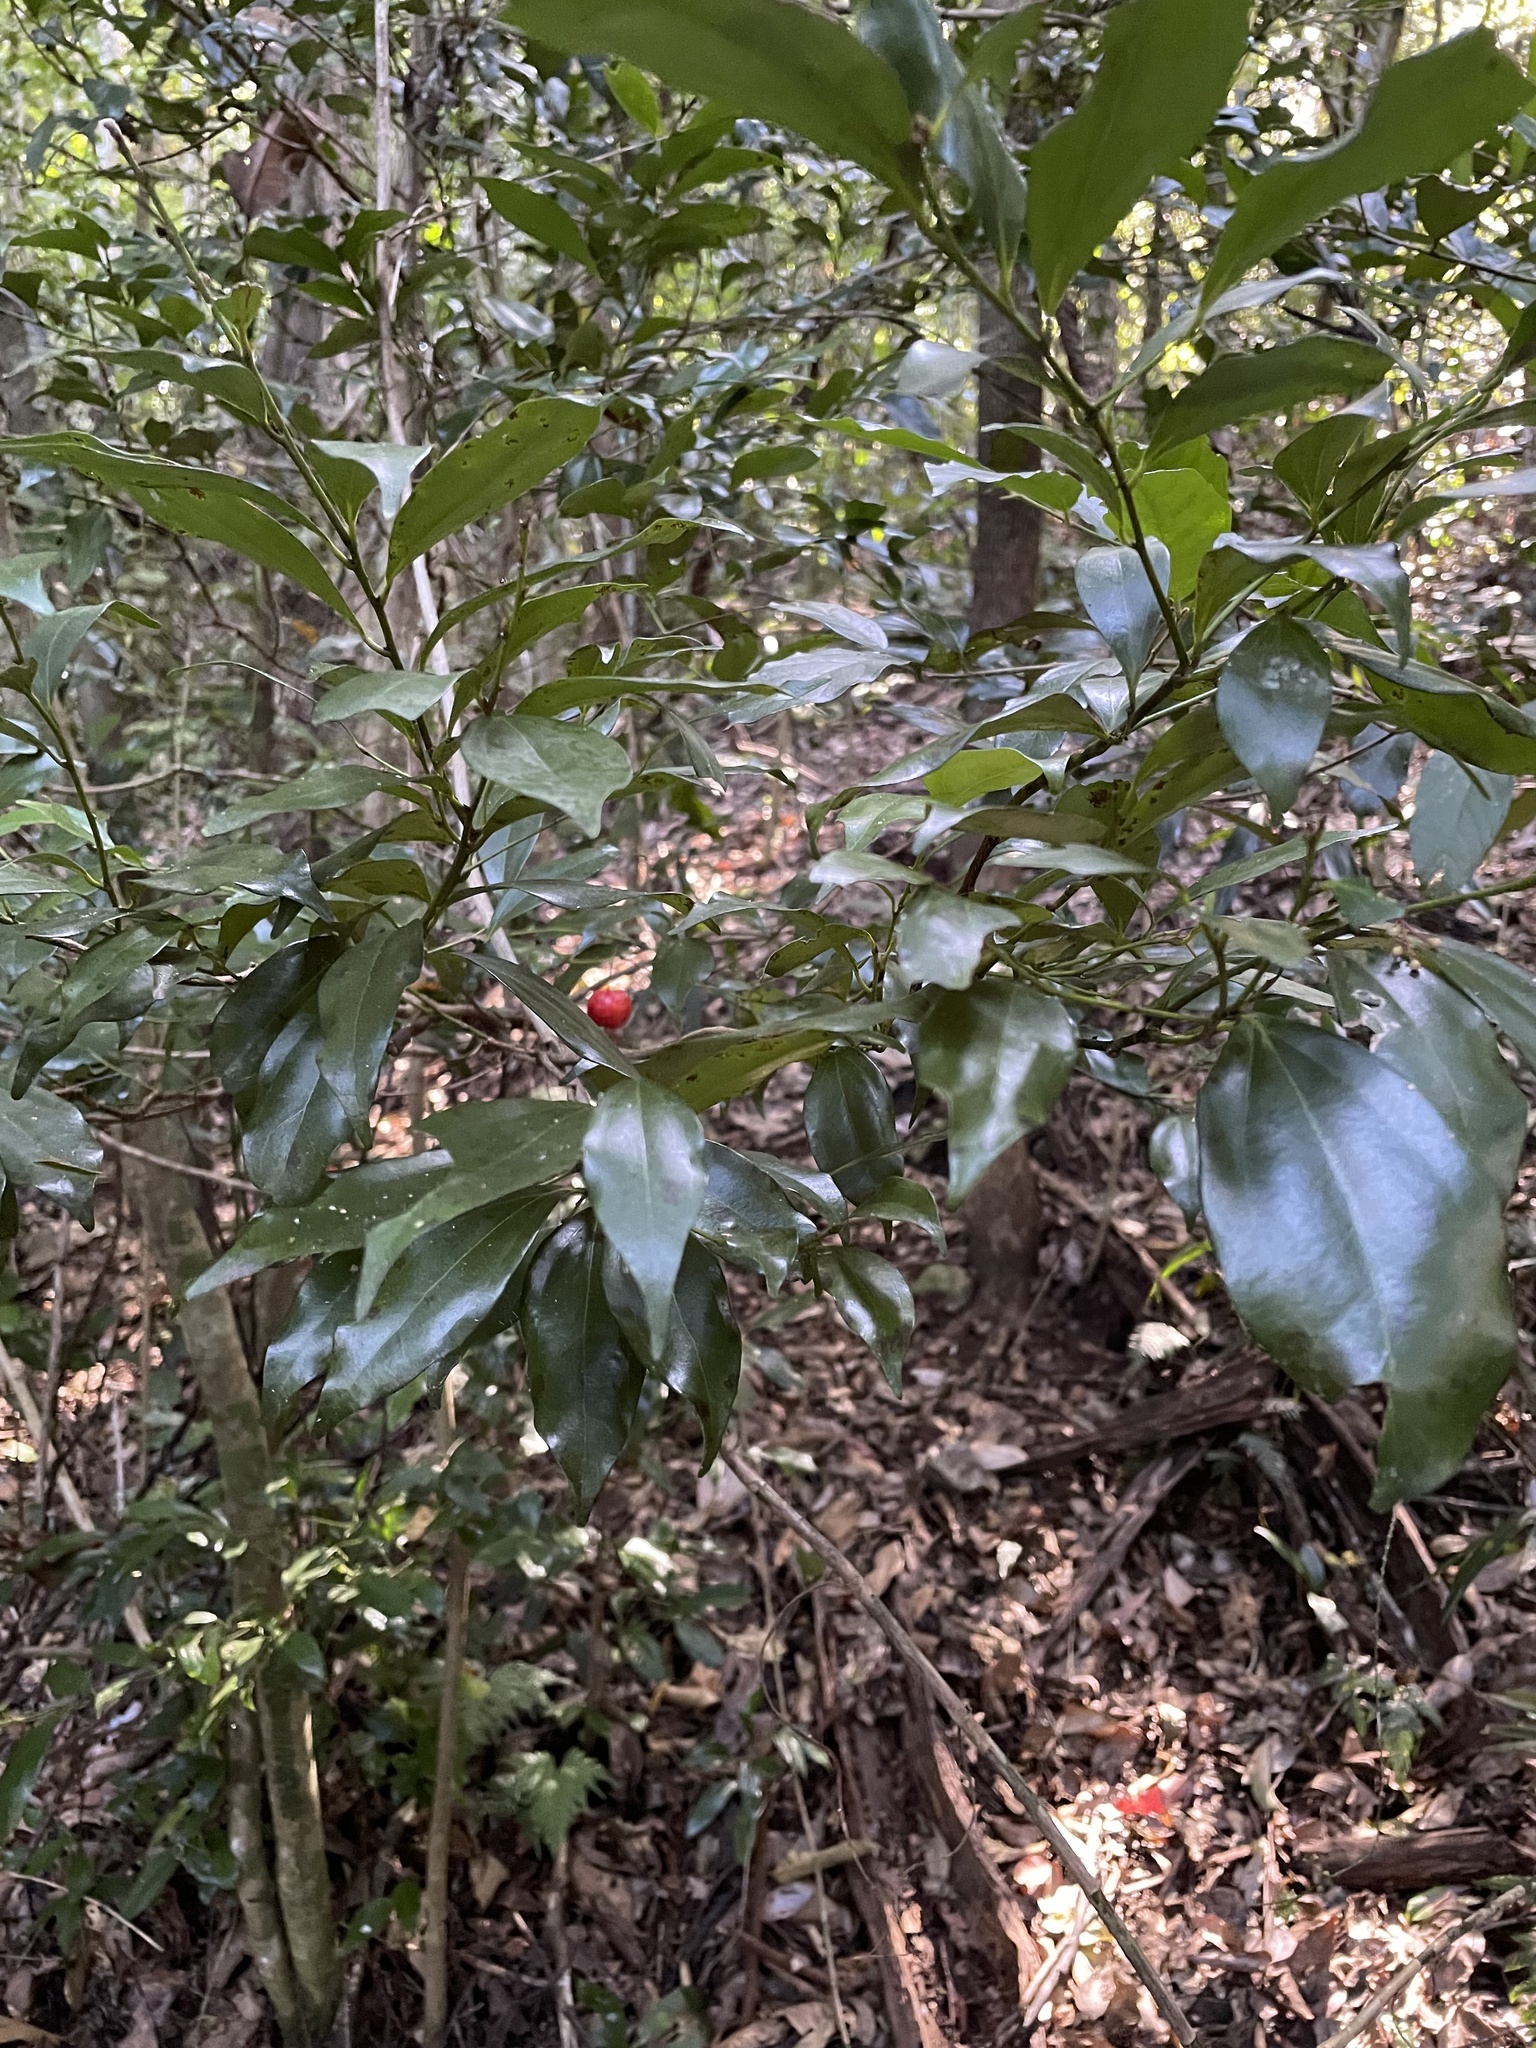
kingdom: Plantae
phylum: Tracheophyta
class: Magnoliopsida
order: Laurales
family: Lauraceae
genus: Cryptocarya
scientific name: Cryptocarya laevigata
